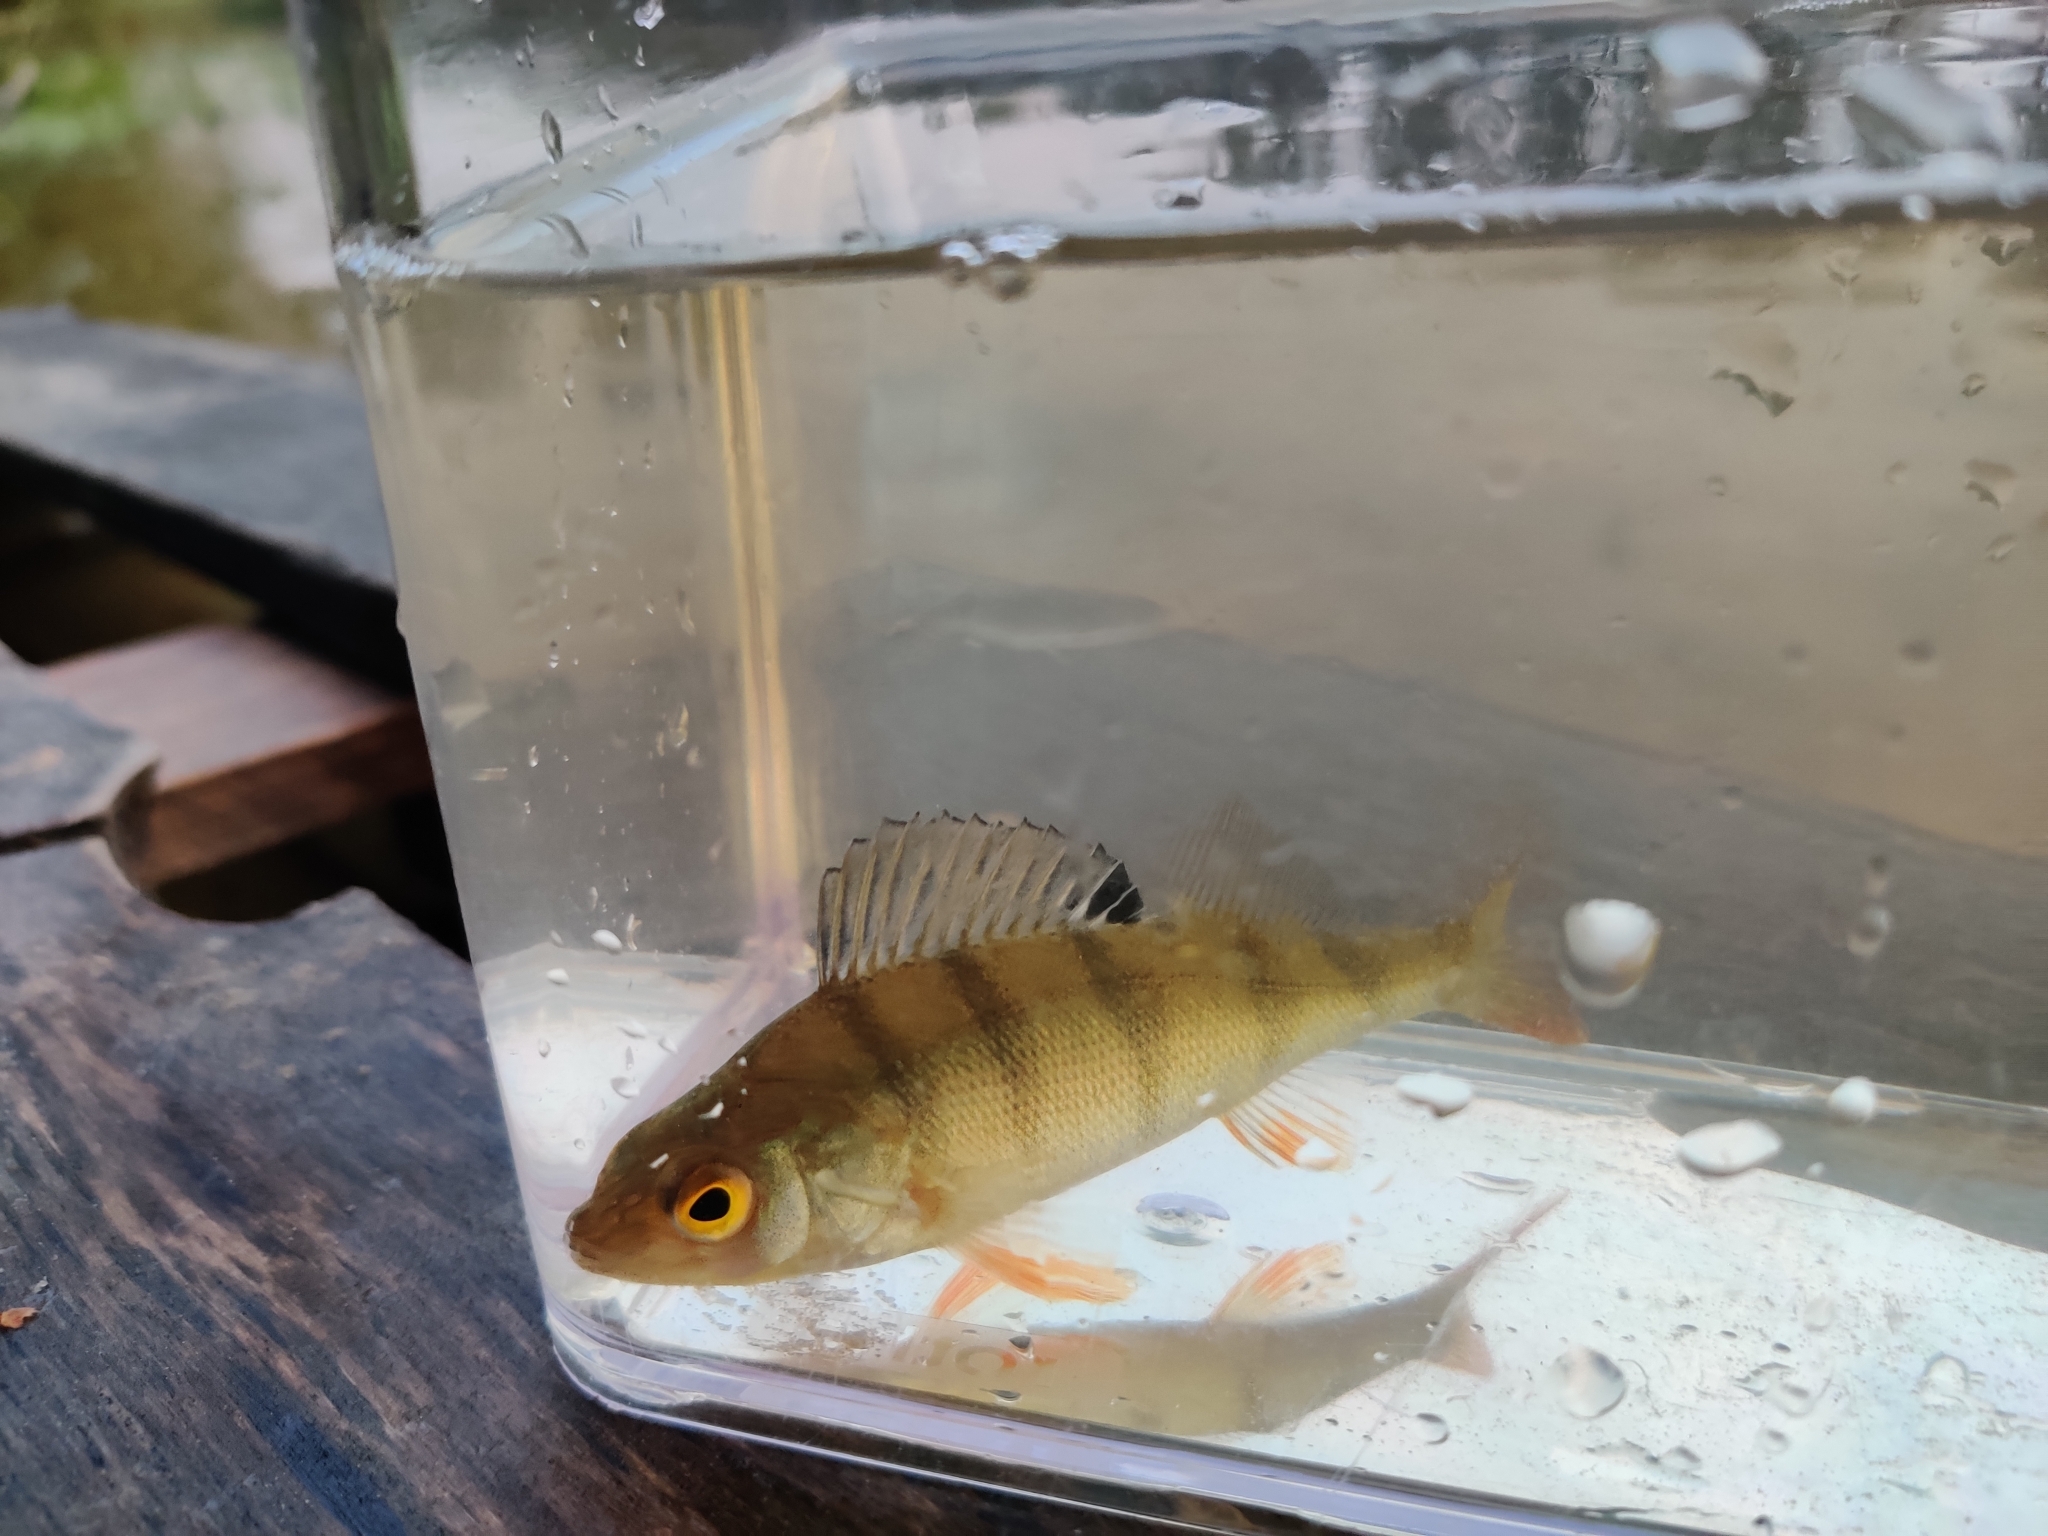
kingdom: Animalia
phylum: Chordata
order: Perciformes
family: Percidae
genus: Perca
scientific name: Perca fluviatilis
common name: Perch
